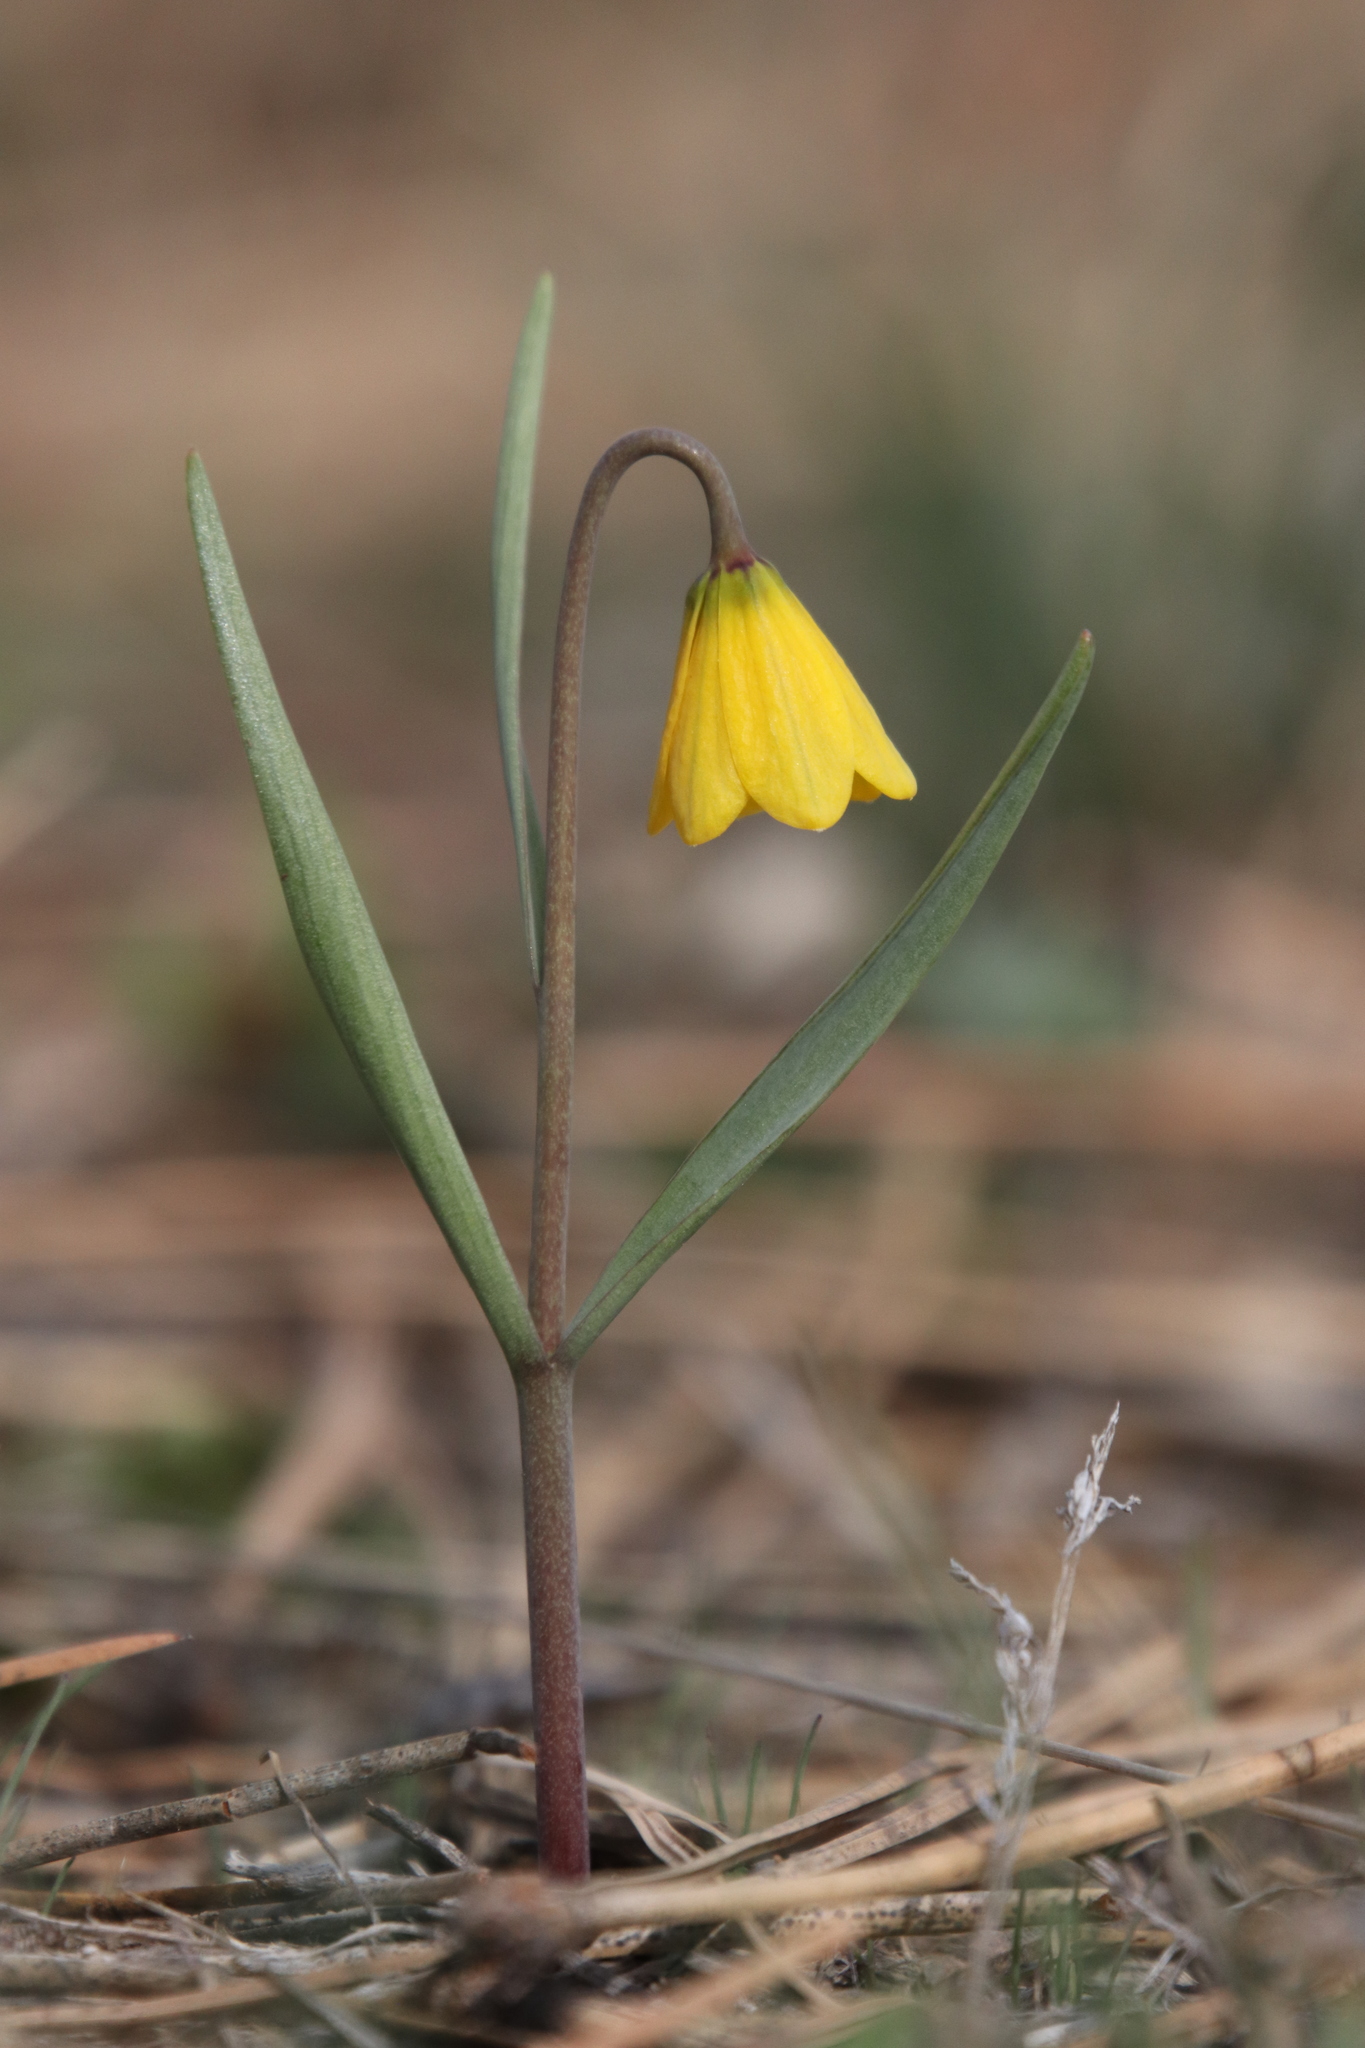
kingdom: Plantae
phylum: Tracheophyta
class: Liliopsida
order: Liliales
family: Liliaceae
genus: Fritillaria
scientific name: Fritillaria pudica
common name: Yellow fritillary
